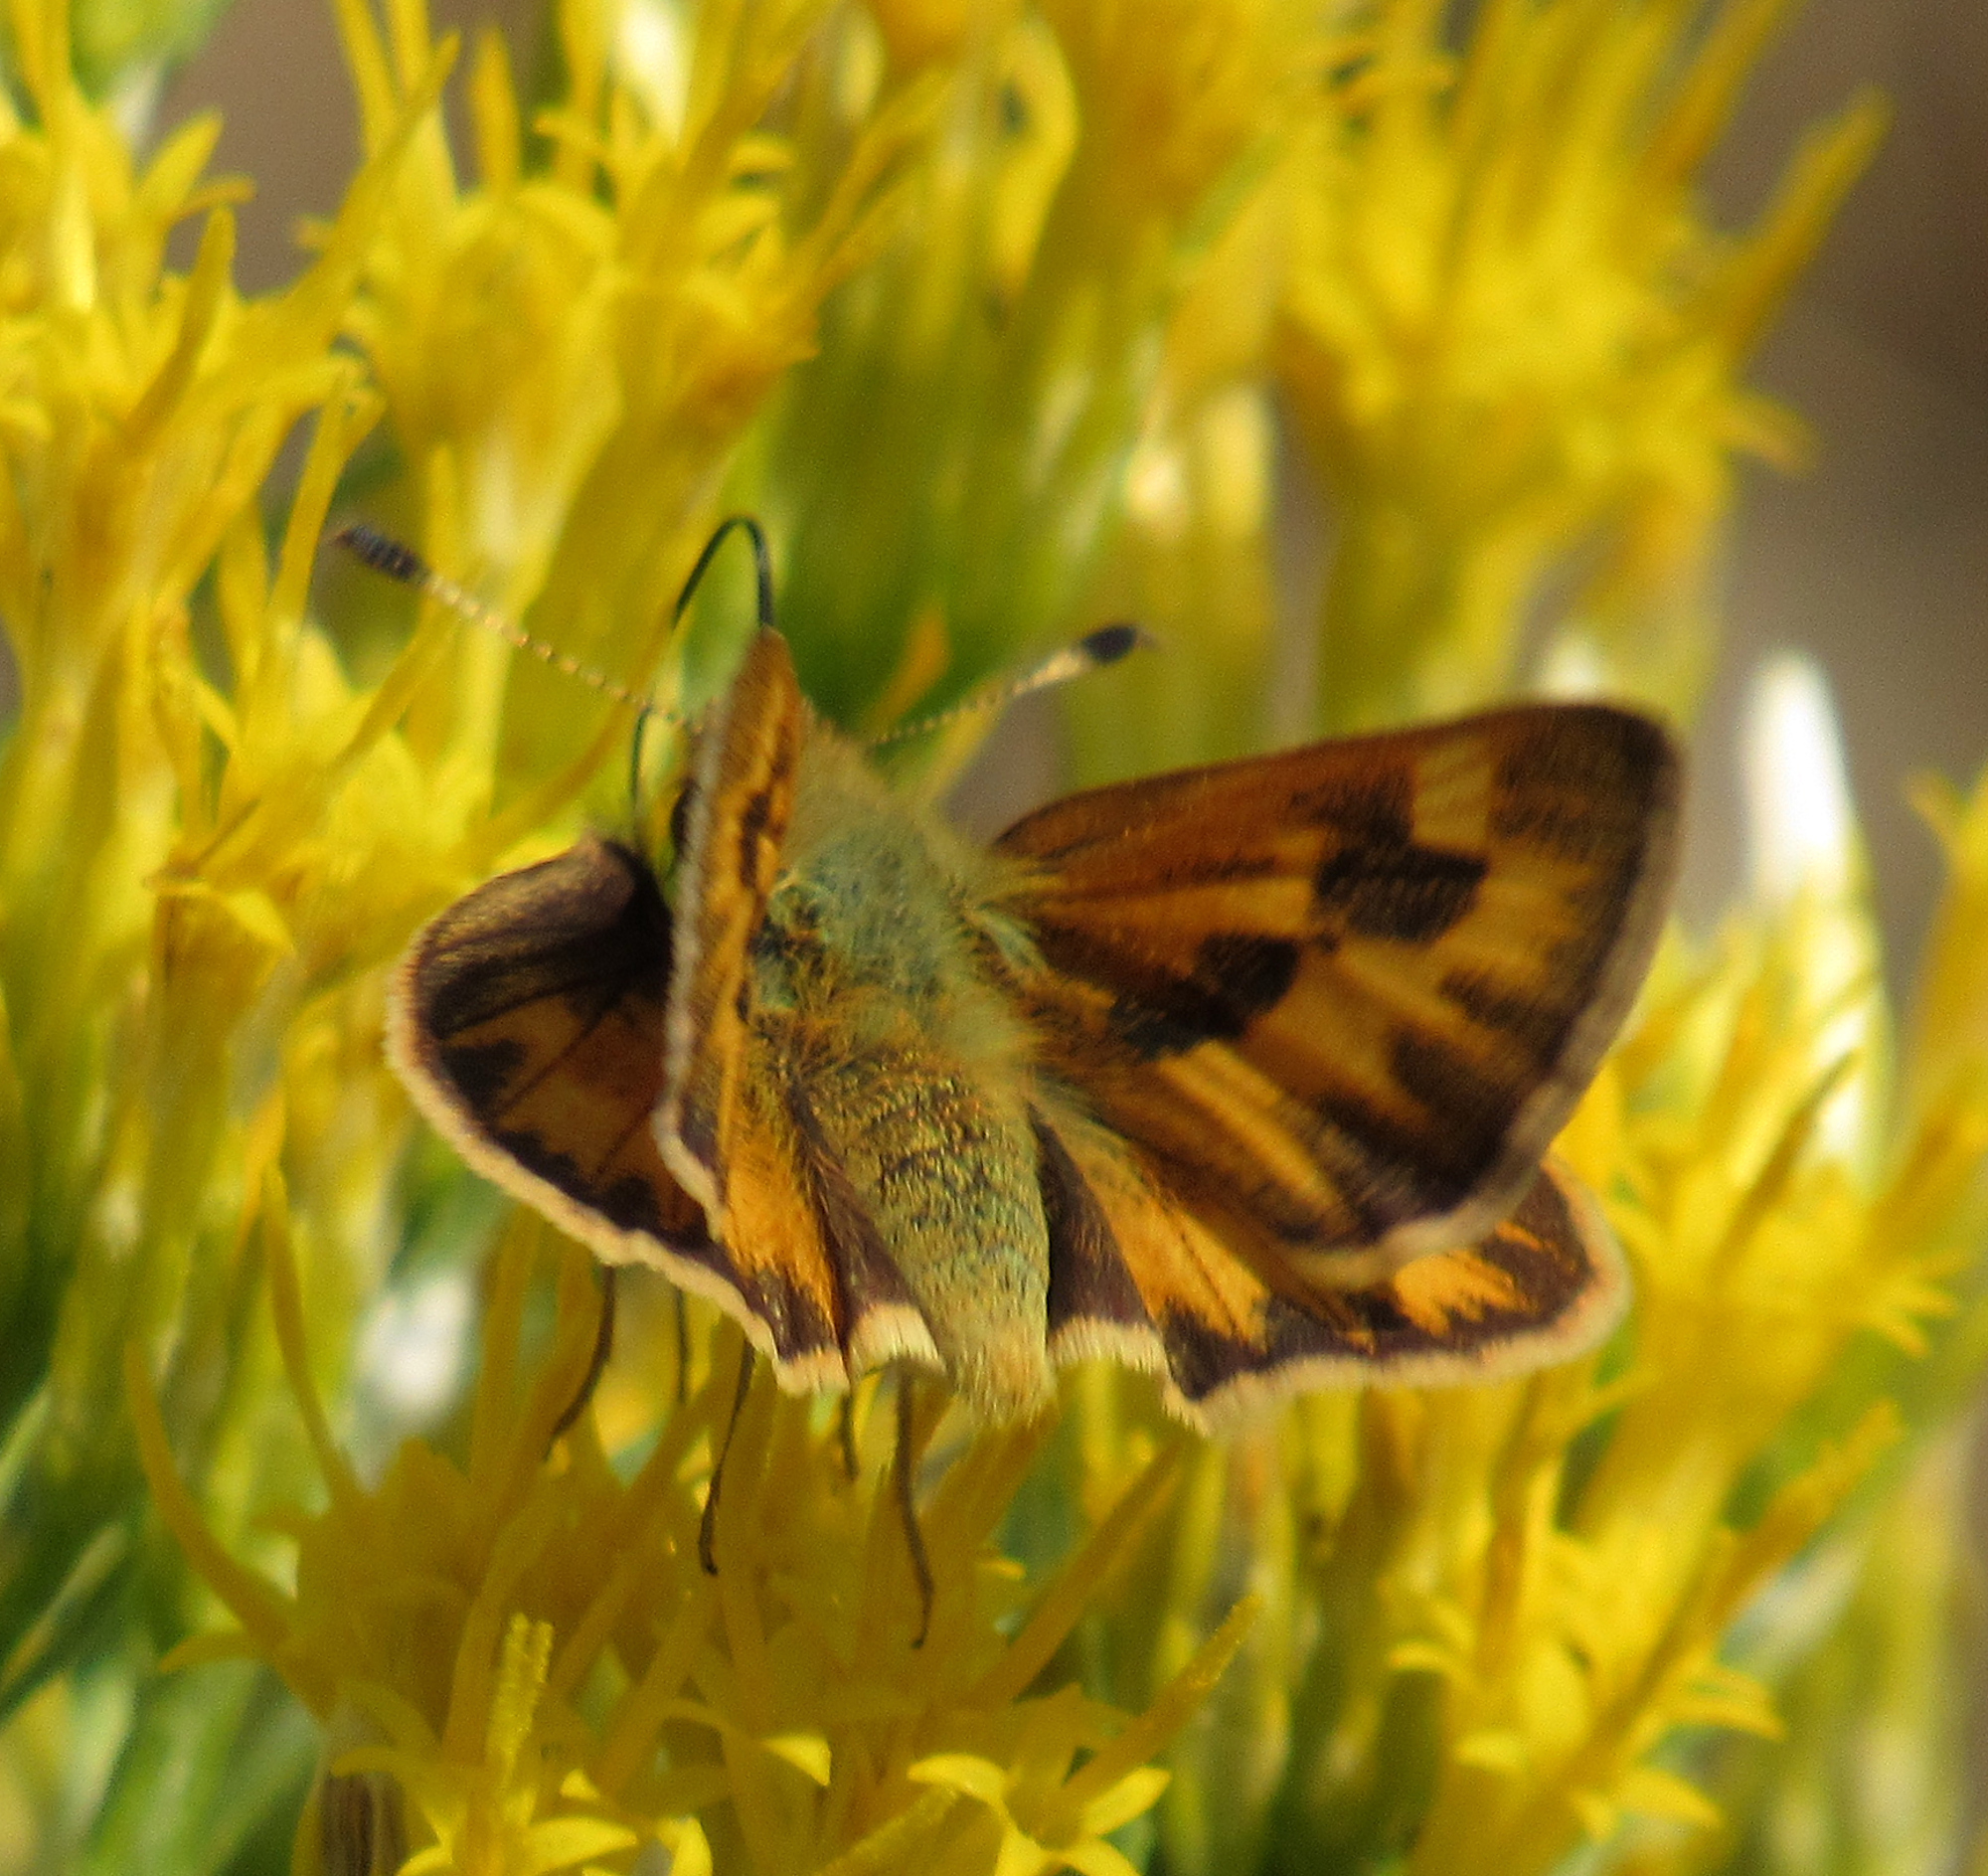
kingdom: Animalia
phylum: Arthropoda
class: Insecta
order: Lepidoptera
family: Hesperiidae
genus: Ochlodes
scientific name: Ochlodes sylvanoides
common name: Woodland skipper
